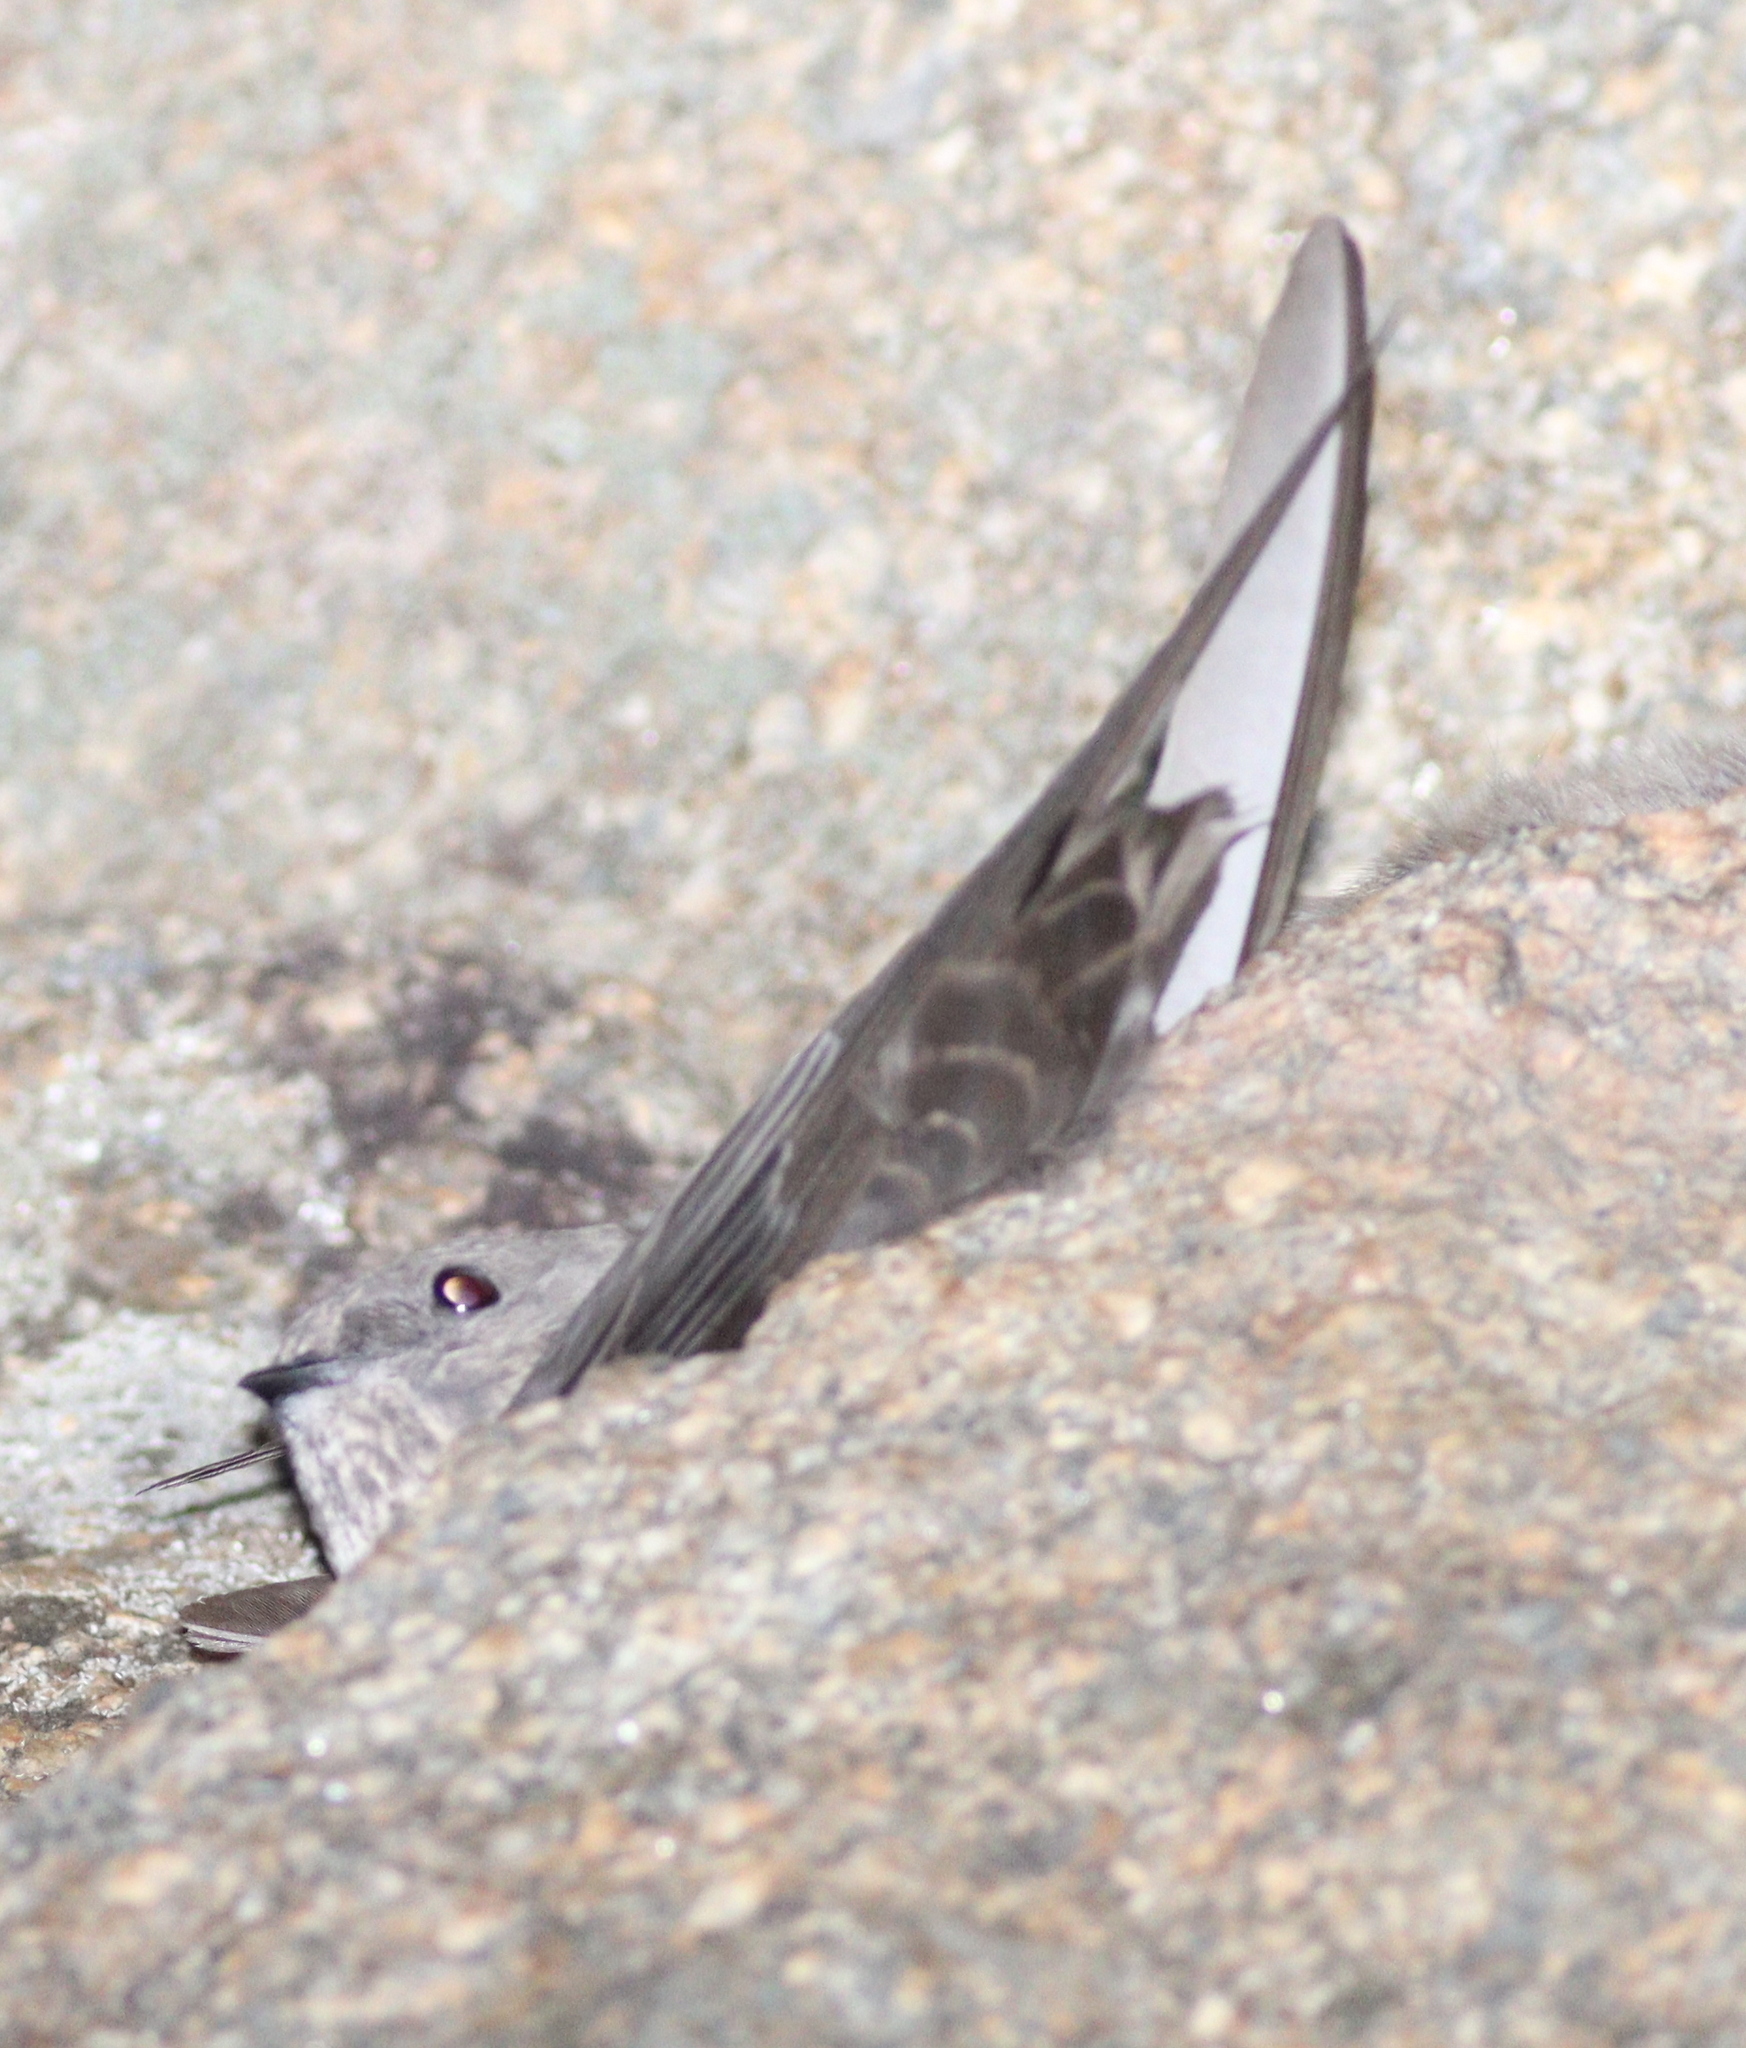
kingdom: Animalia
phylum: Chordata
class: Aves
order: Passeriformes
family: Hirundinidae
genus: Ptyonoprogne
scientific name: Ptyonoprogne rupestris
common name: Eurasian crag martin
